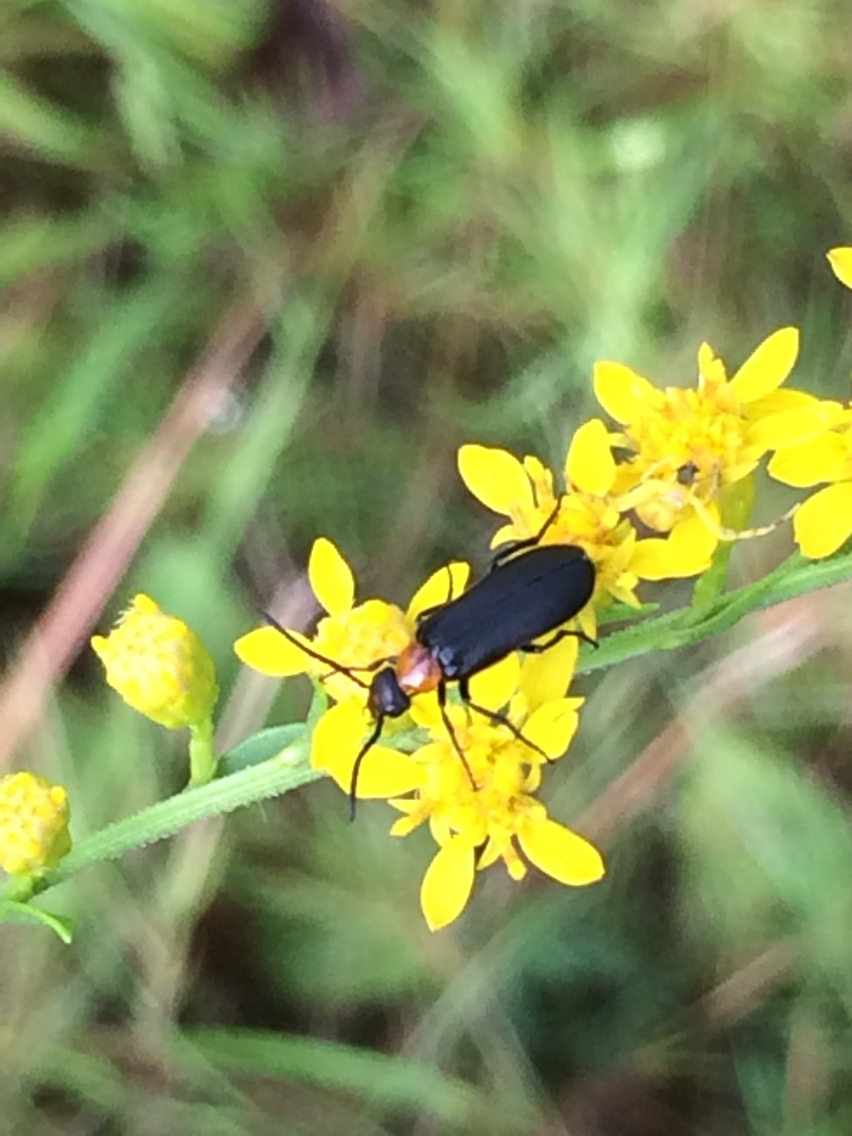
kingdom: Animalia
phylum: Arthropoda
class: Insecta
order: Coleoptera
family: Meloidae
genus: Nemognatha
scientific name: Nemognatha nemorensis
